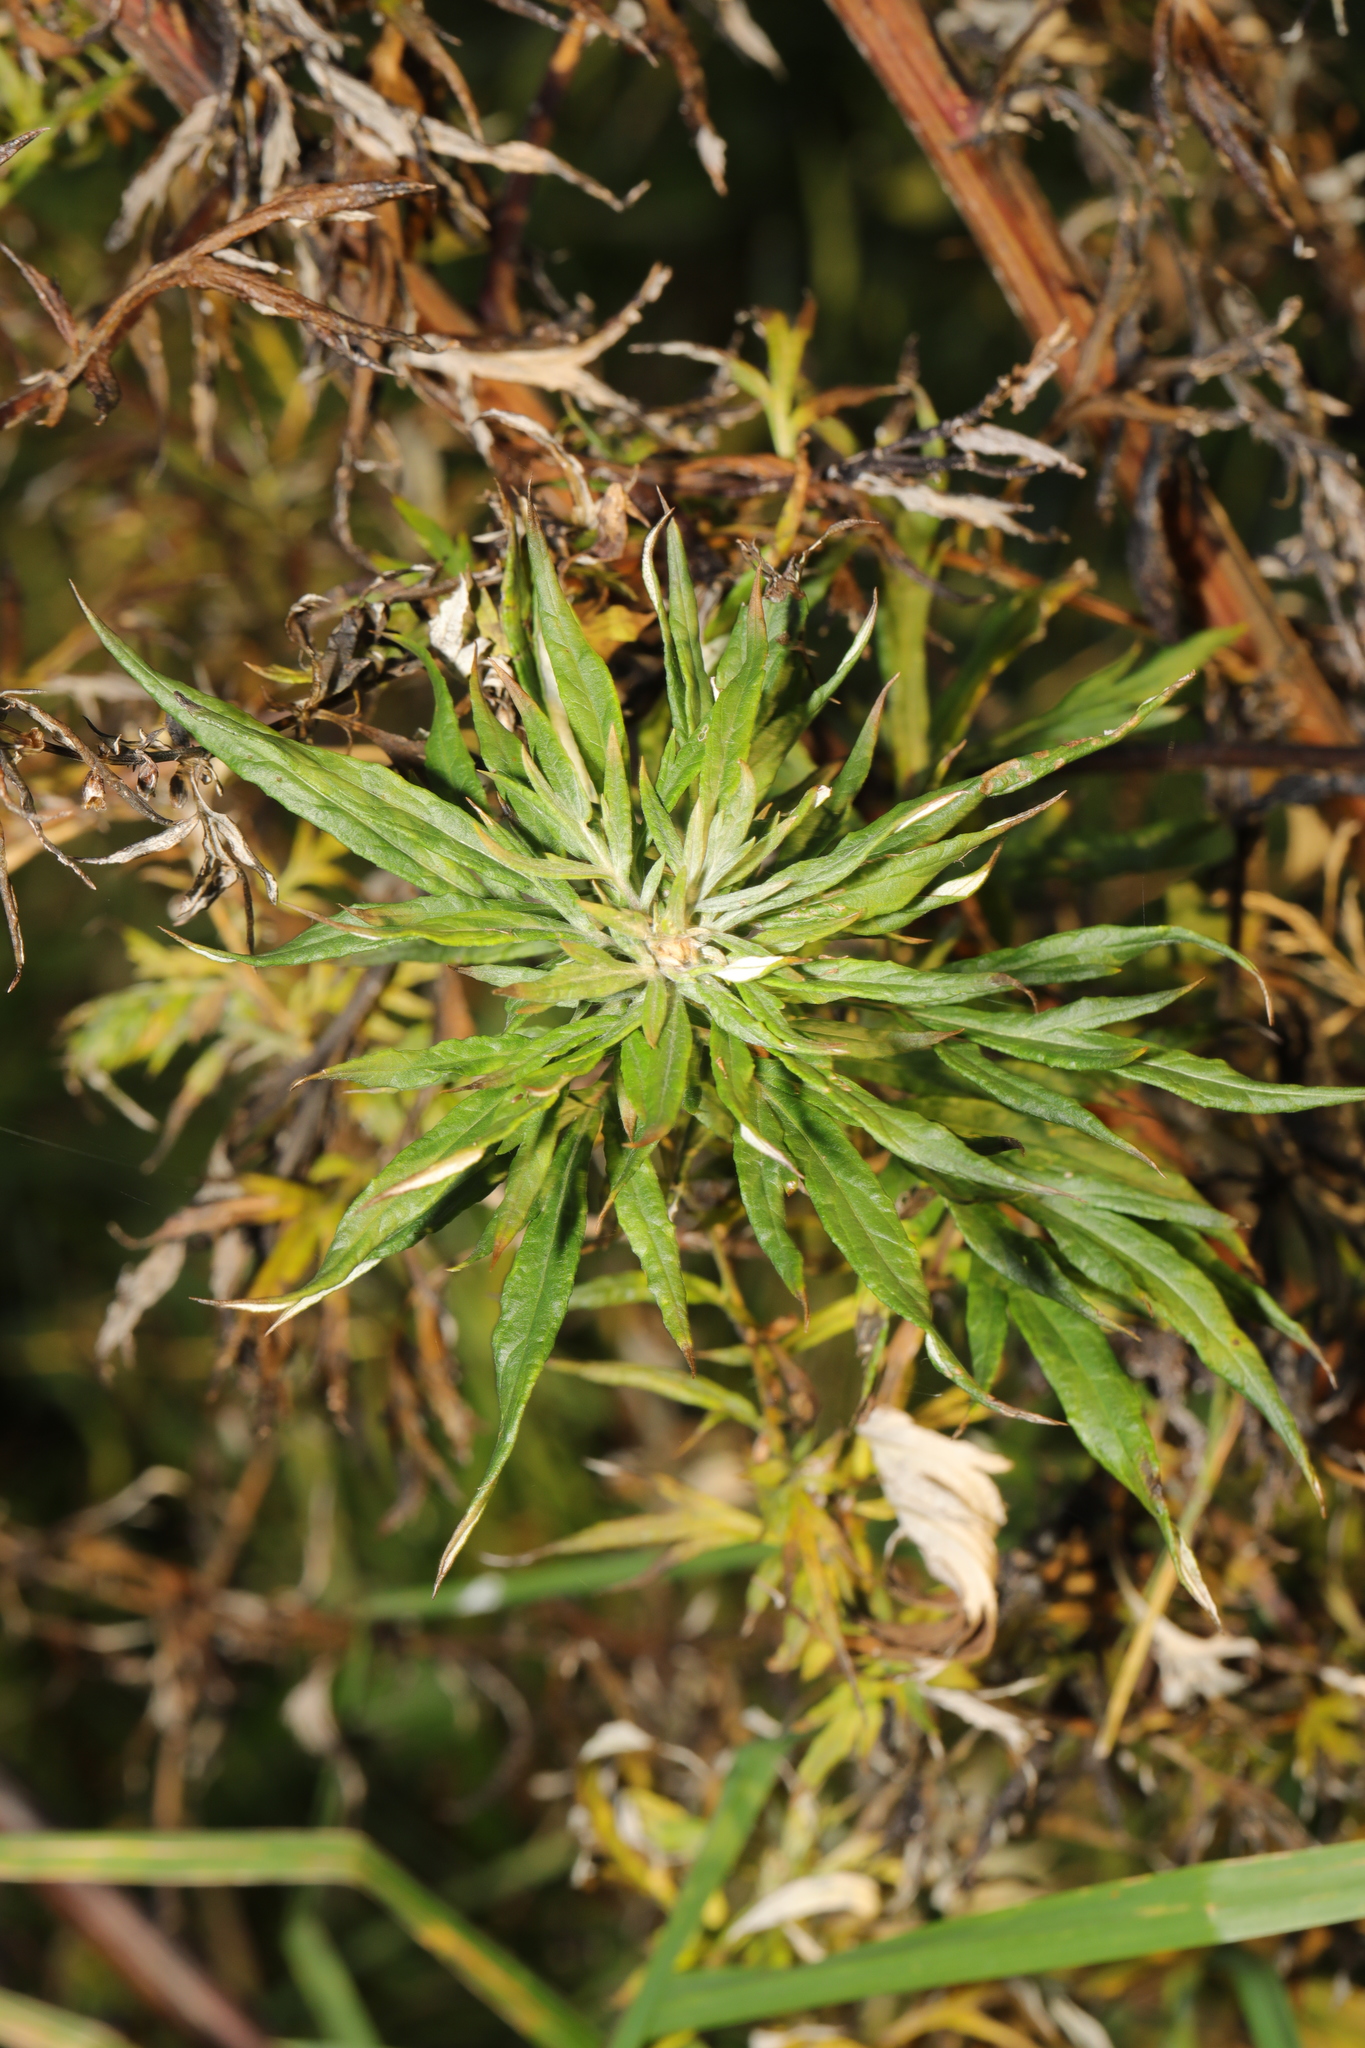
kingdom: Plantae
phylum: Tracheophyta
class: Magnoliopsida
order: Asterales
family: Asteraceae
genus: Artemisia
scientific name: Artemisia vulgaris
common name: Mugwort
